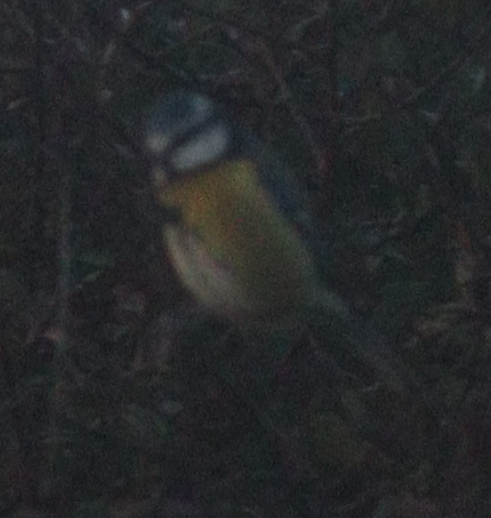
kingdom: Animalia
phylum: Chordata
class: Aves
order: Passeriformes
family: Paridae
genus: Cyanistes
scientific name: Cyanistes caeruleus
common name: Eurasian blue tit
